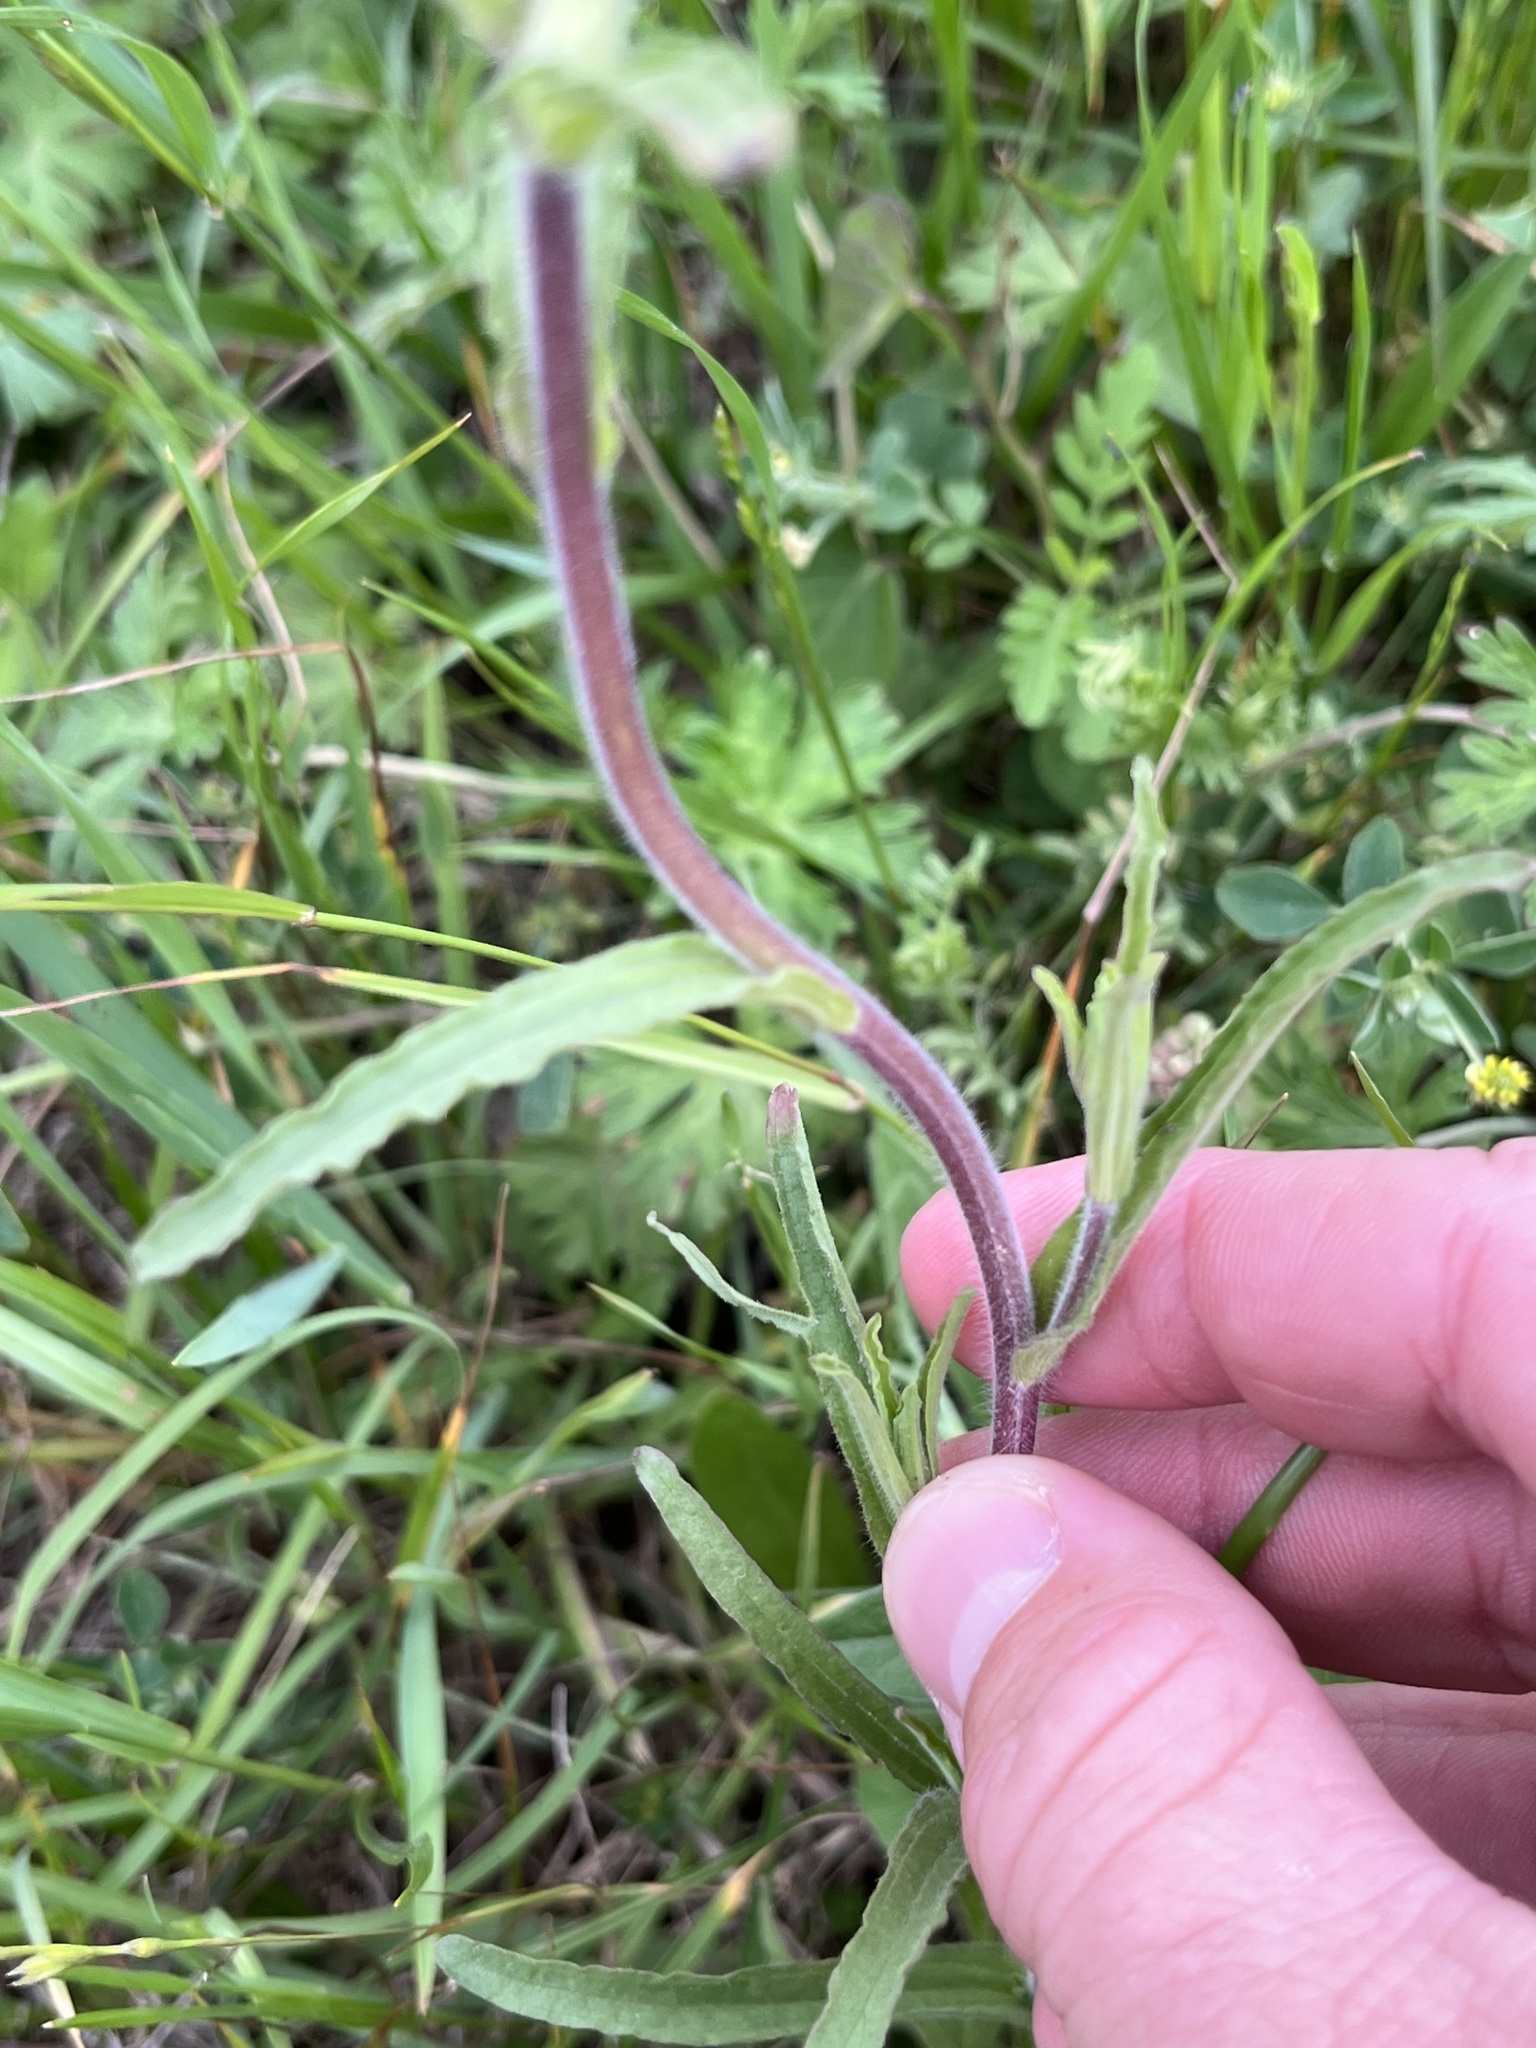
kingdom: Plantae
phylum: Tracheophyta
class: Magnoliopsida
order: Lamiales
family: Orobanchaceae
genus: Castilleja
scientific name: Castilleja indivisa
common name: Texas paintbrush
